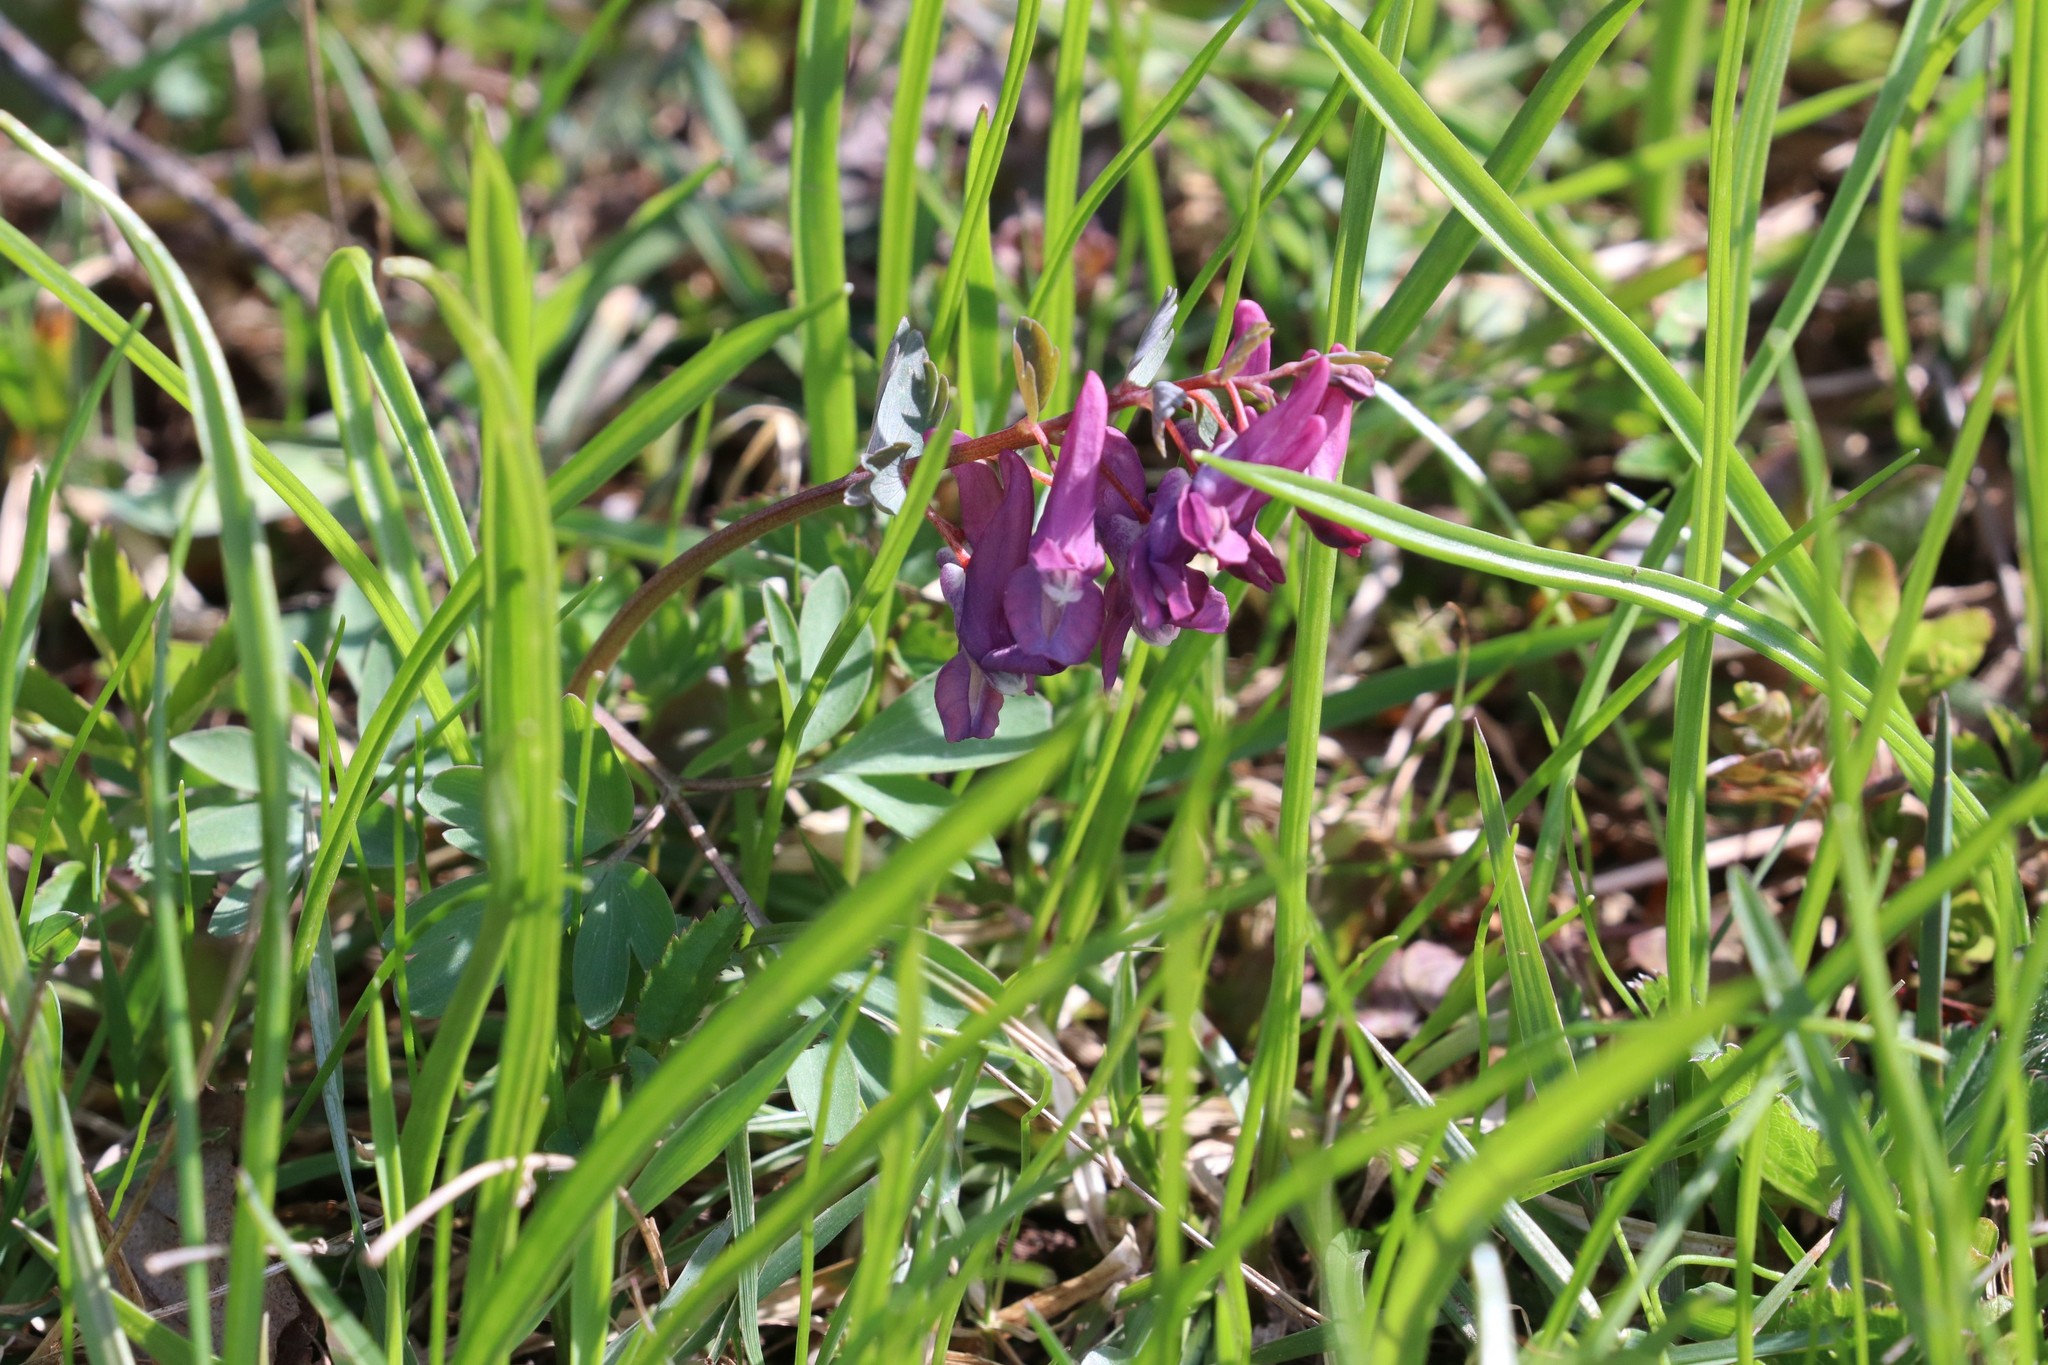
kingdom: Plantae
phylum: Tracheophyta
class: Magnoliopsida
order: Ranunculales
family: Papaveraceae
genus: Corydalis
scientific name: Corydalis solida
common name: Bird-in-a-bush
